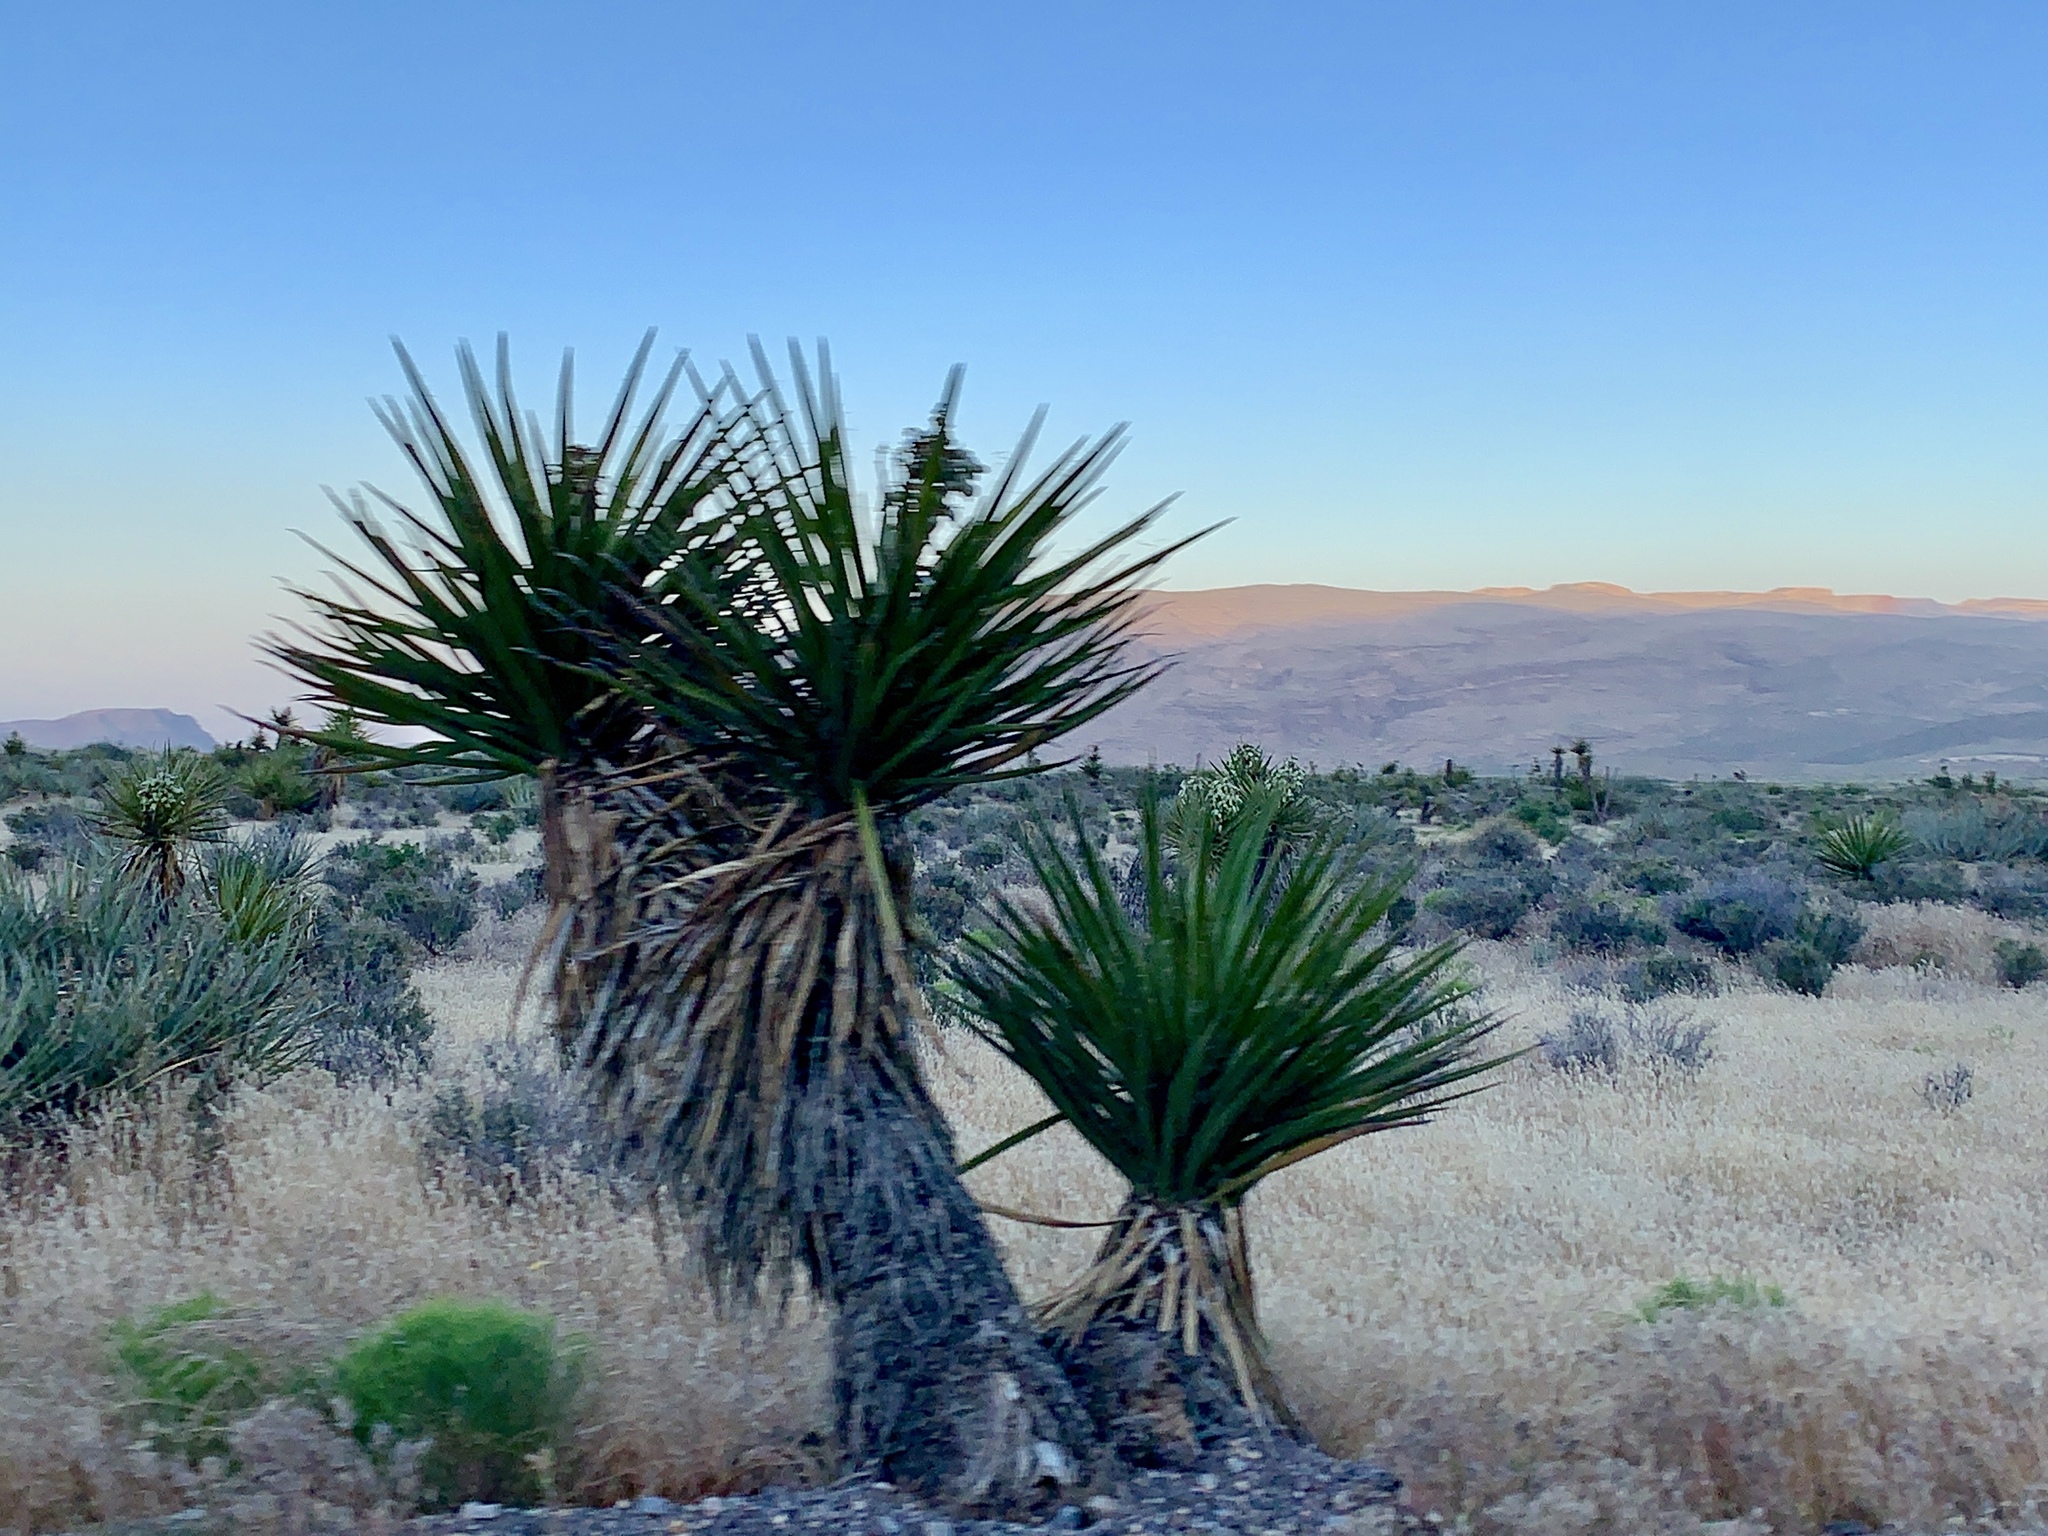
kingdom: Plantae
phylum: Tracheophyta
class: Liliopsida
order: Asparagales
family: Asparagaceae
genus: Yucca
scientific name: Yucca schidigera
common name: Mojave yucca
